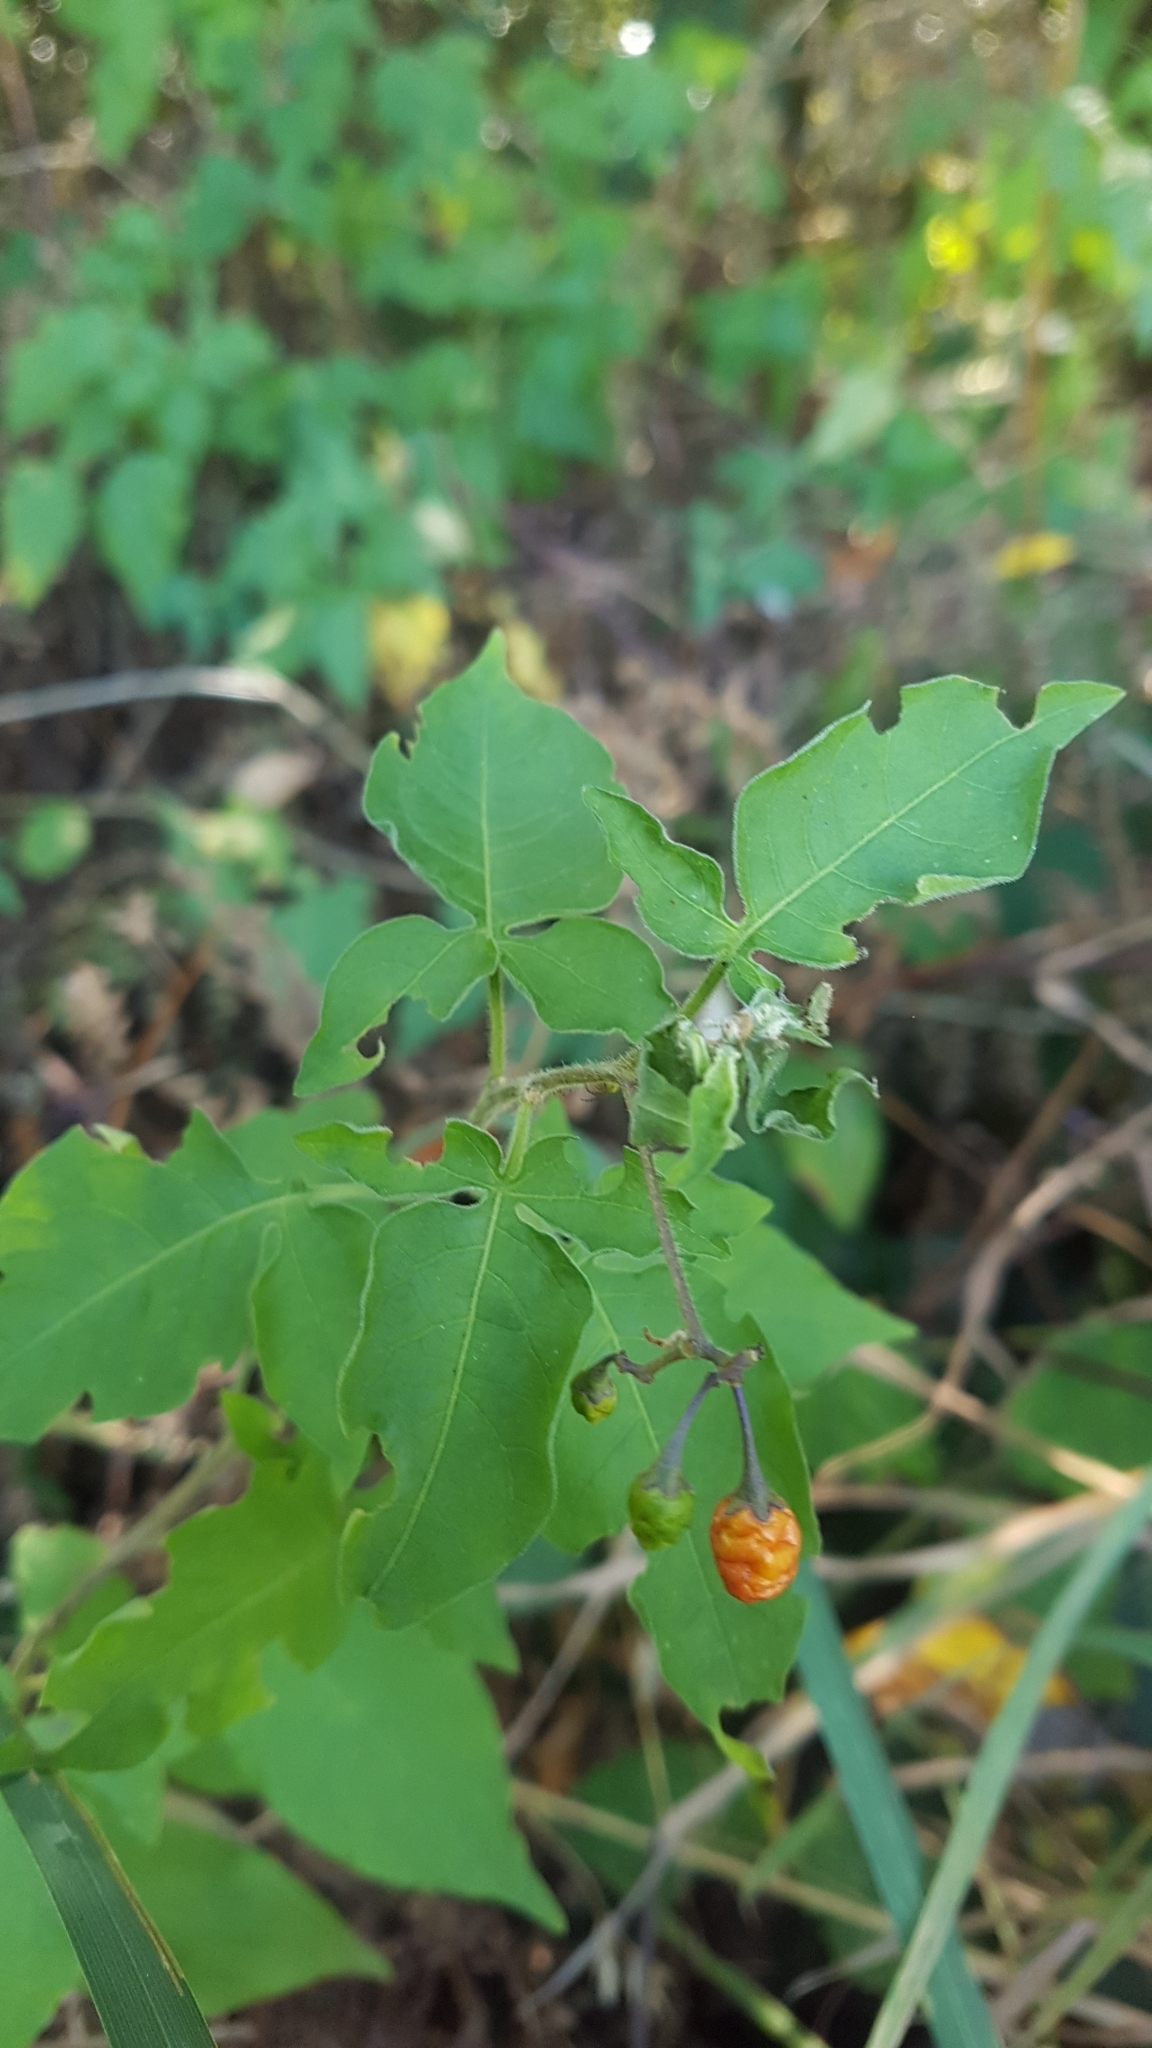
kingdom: Plantae
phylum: Tracheophyta
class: Magnoliopsida
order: Solanales
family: Solanaceae
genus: Solanum
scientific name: Solanum dulcamara
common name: Climbing nightshade
